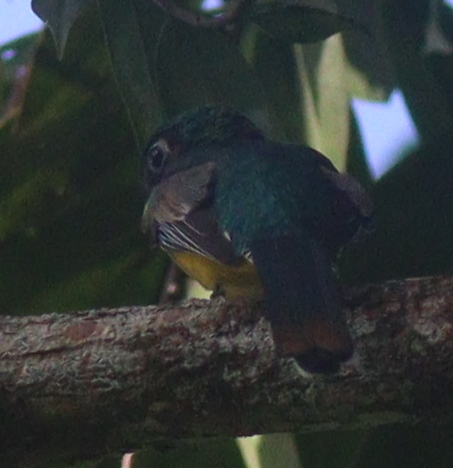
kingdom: Animalia
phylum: Chordata
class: Aves
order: Trogoniformes
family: Trogonidae
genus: Trogon
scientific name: Trogon rufus
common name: Black-throated trogon
